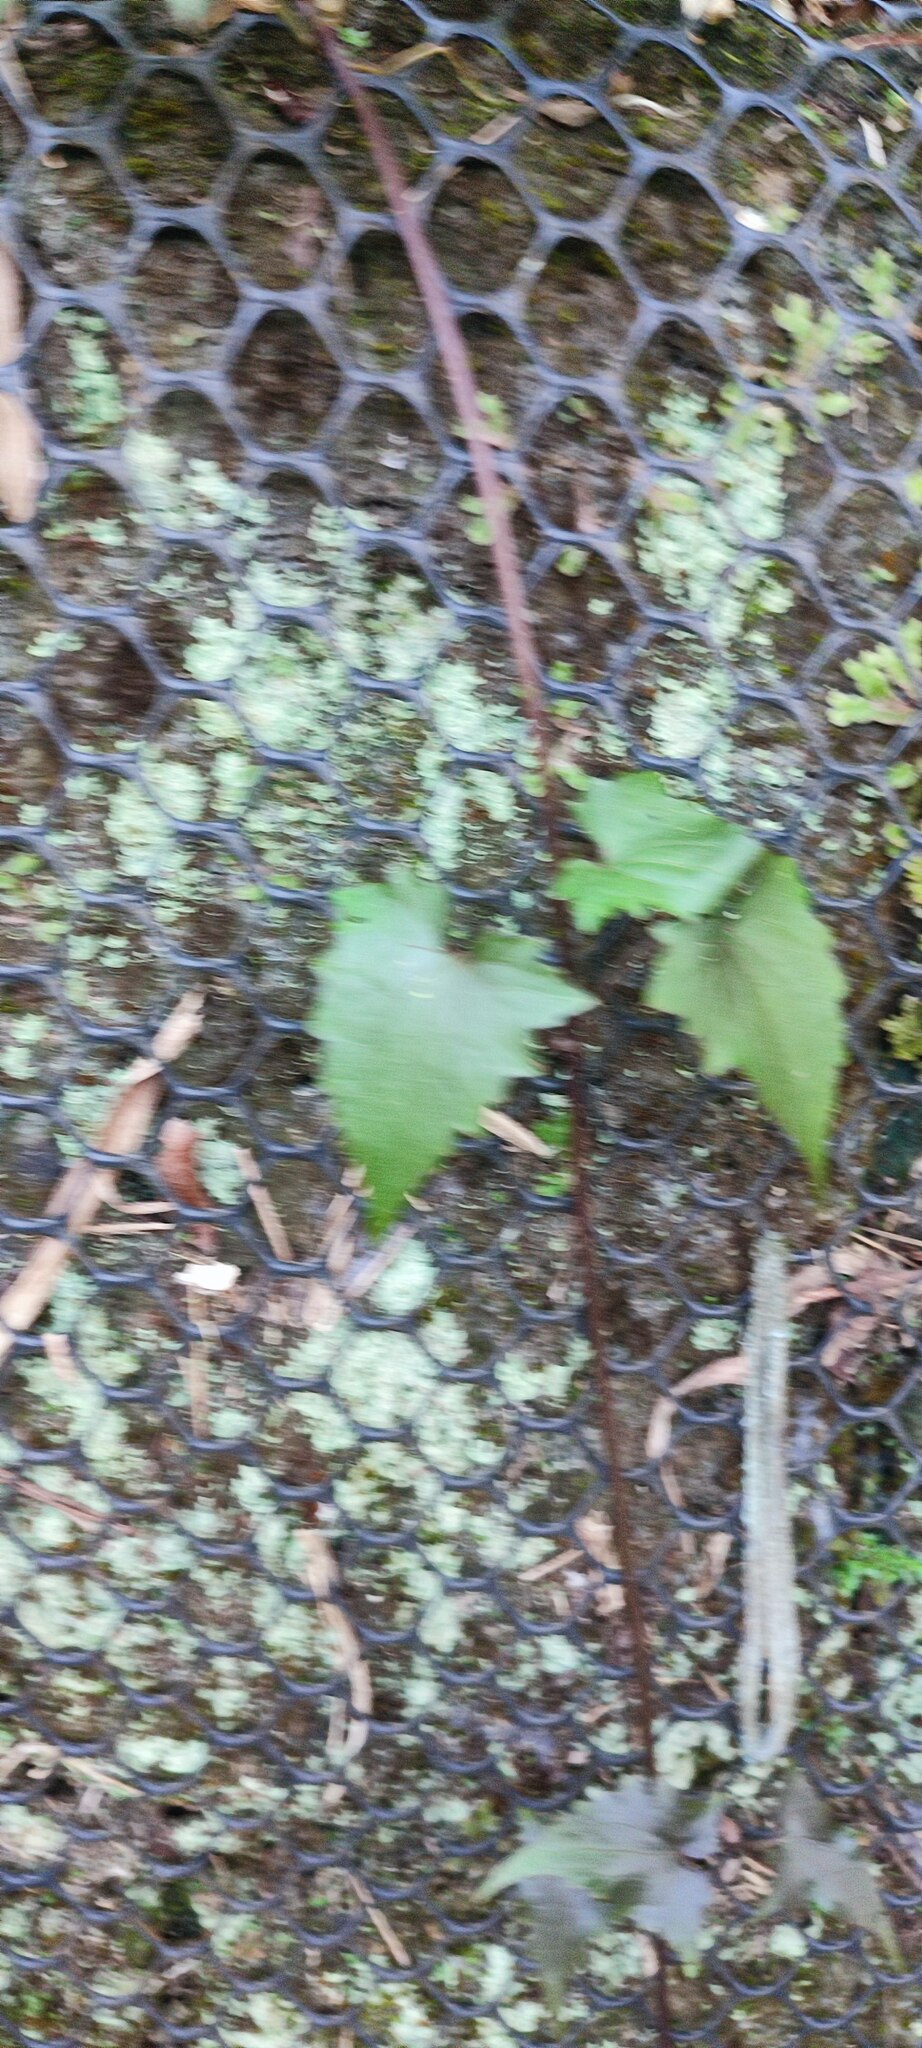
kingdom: Plantae
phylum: Tracheophyta
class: Magnoliopsida
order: Asterales
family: Asteraceae
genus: Mikania
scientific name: Mikania micrantha
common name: Mile-a-minute
